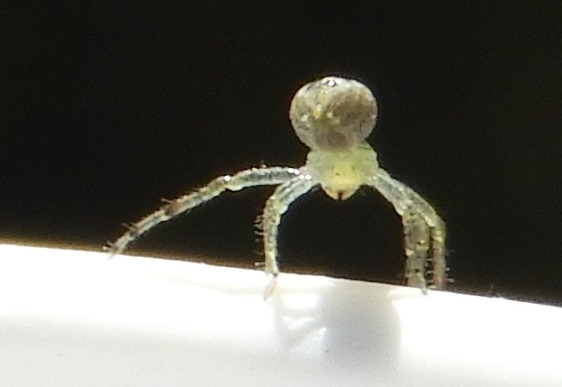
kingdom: Animalia
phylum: Arthropoda
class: Arachnida
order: Araneae
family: Thomisidae
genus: Isaloides
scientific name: Isaloides
